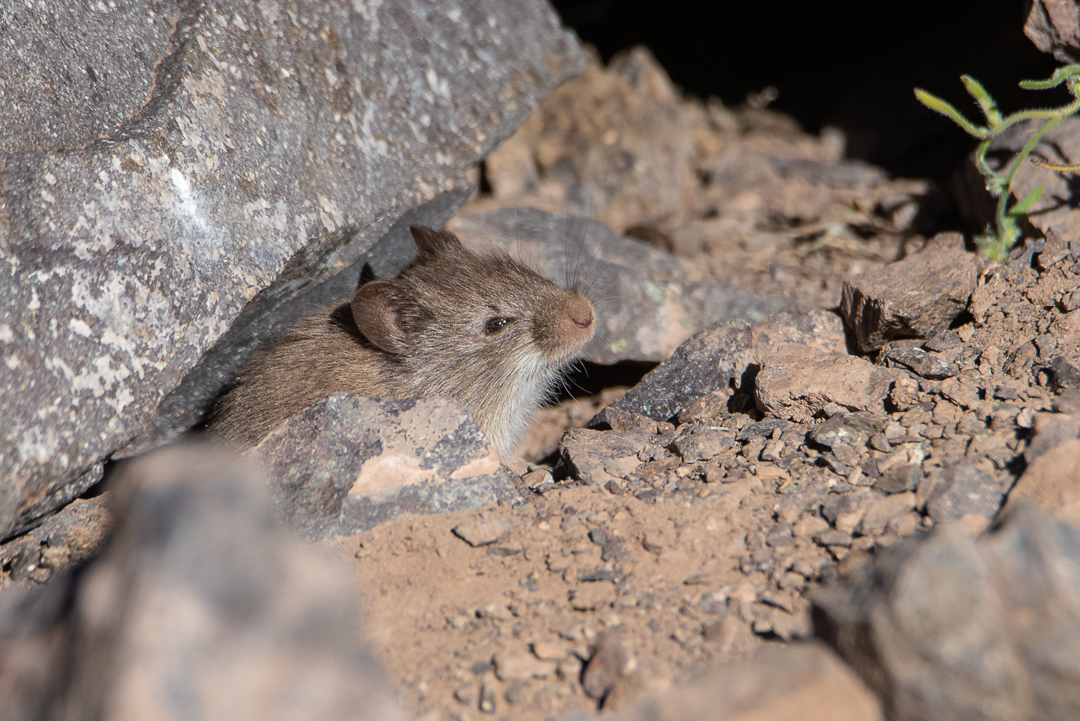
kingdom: Animalia
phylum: Chordata
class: Mammalia
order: Rodentia
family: Cricetidae
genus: Akodon
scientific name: Akodon albiventer
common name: White-bellied akodont
